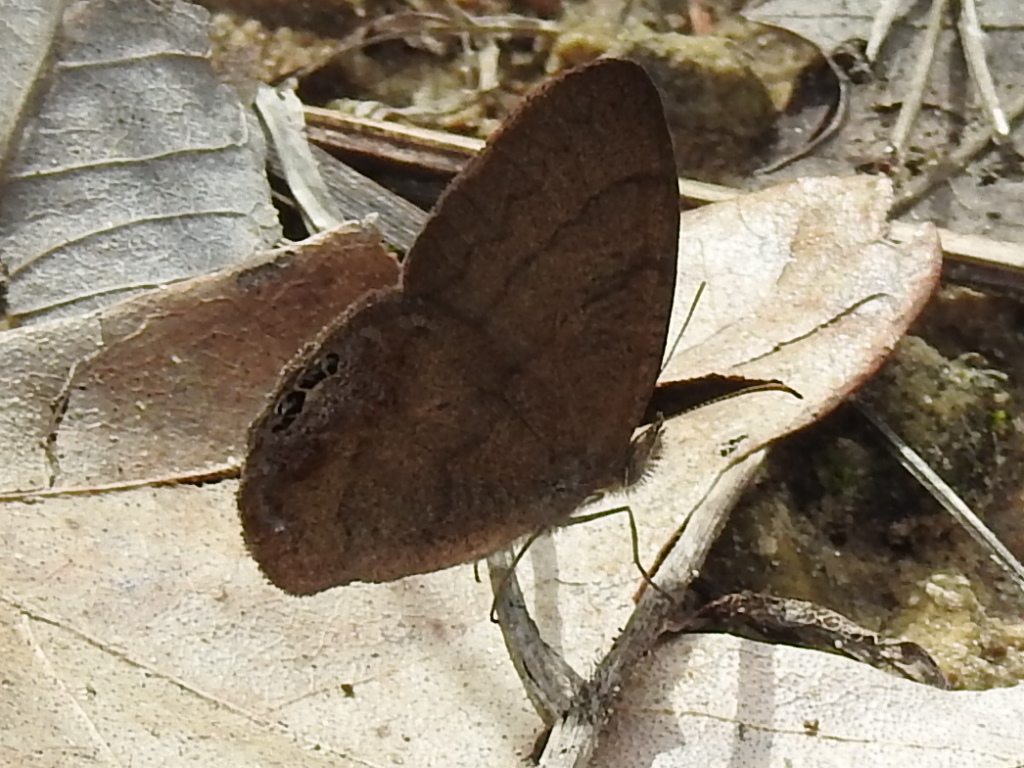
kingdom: Animalia
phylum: Arthropoda
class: Insecta
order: Lepidoptera
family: Nymphalidae
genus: Euptychia
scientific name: Euptychia cornelius
